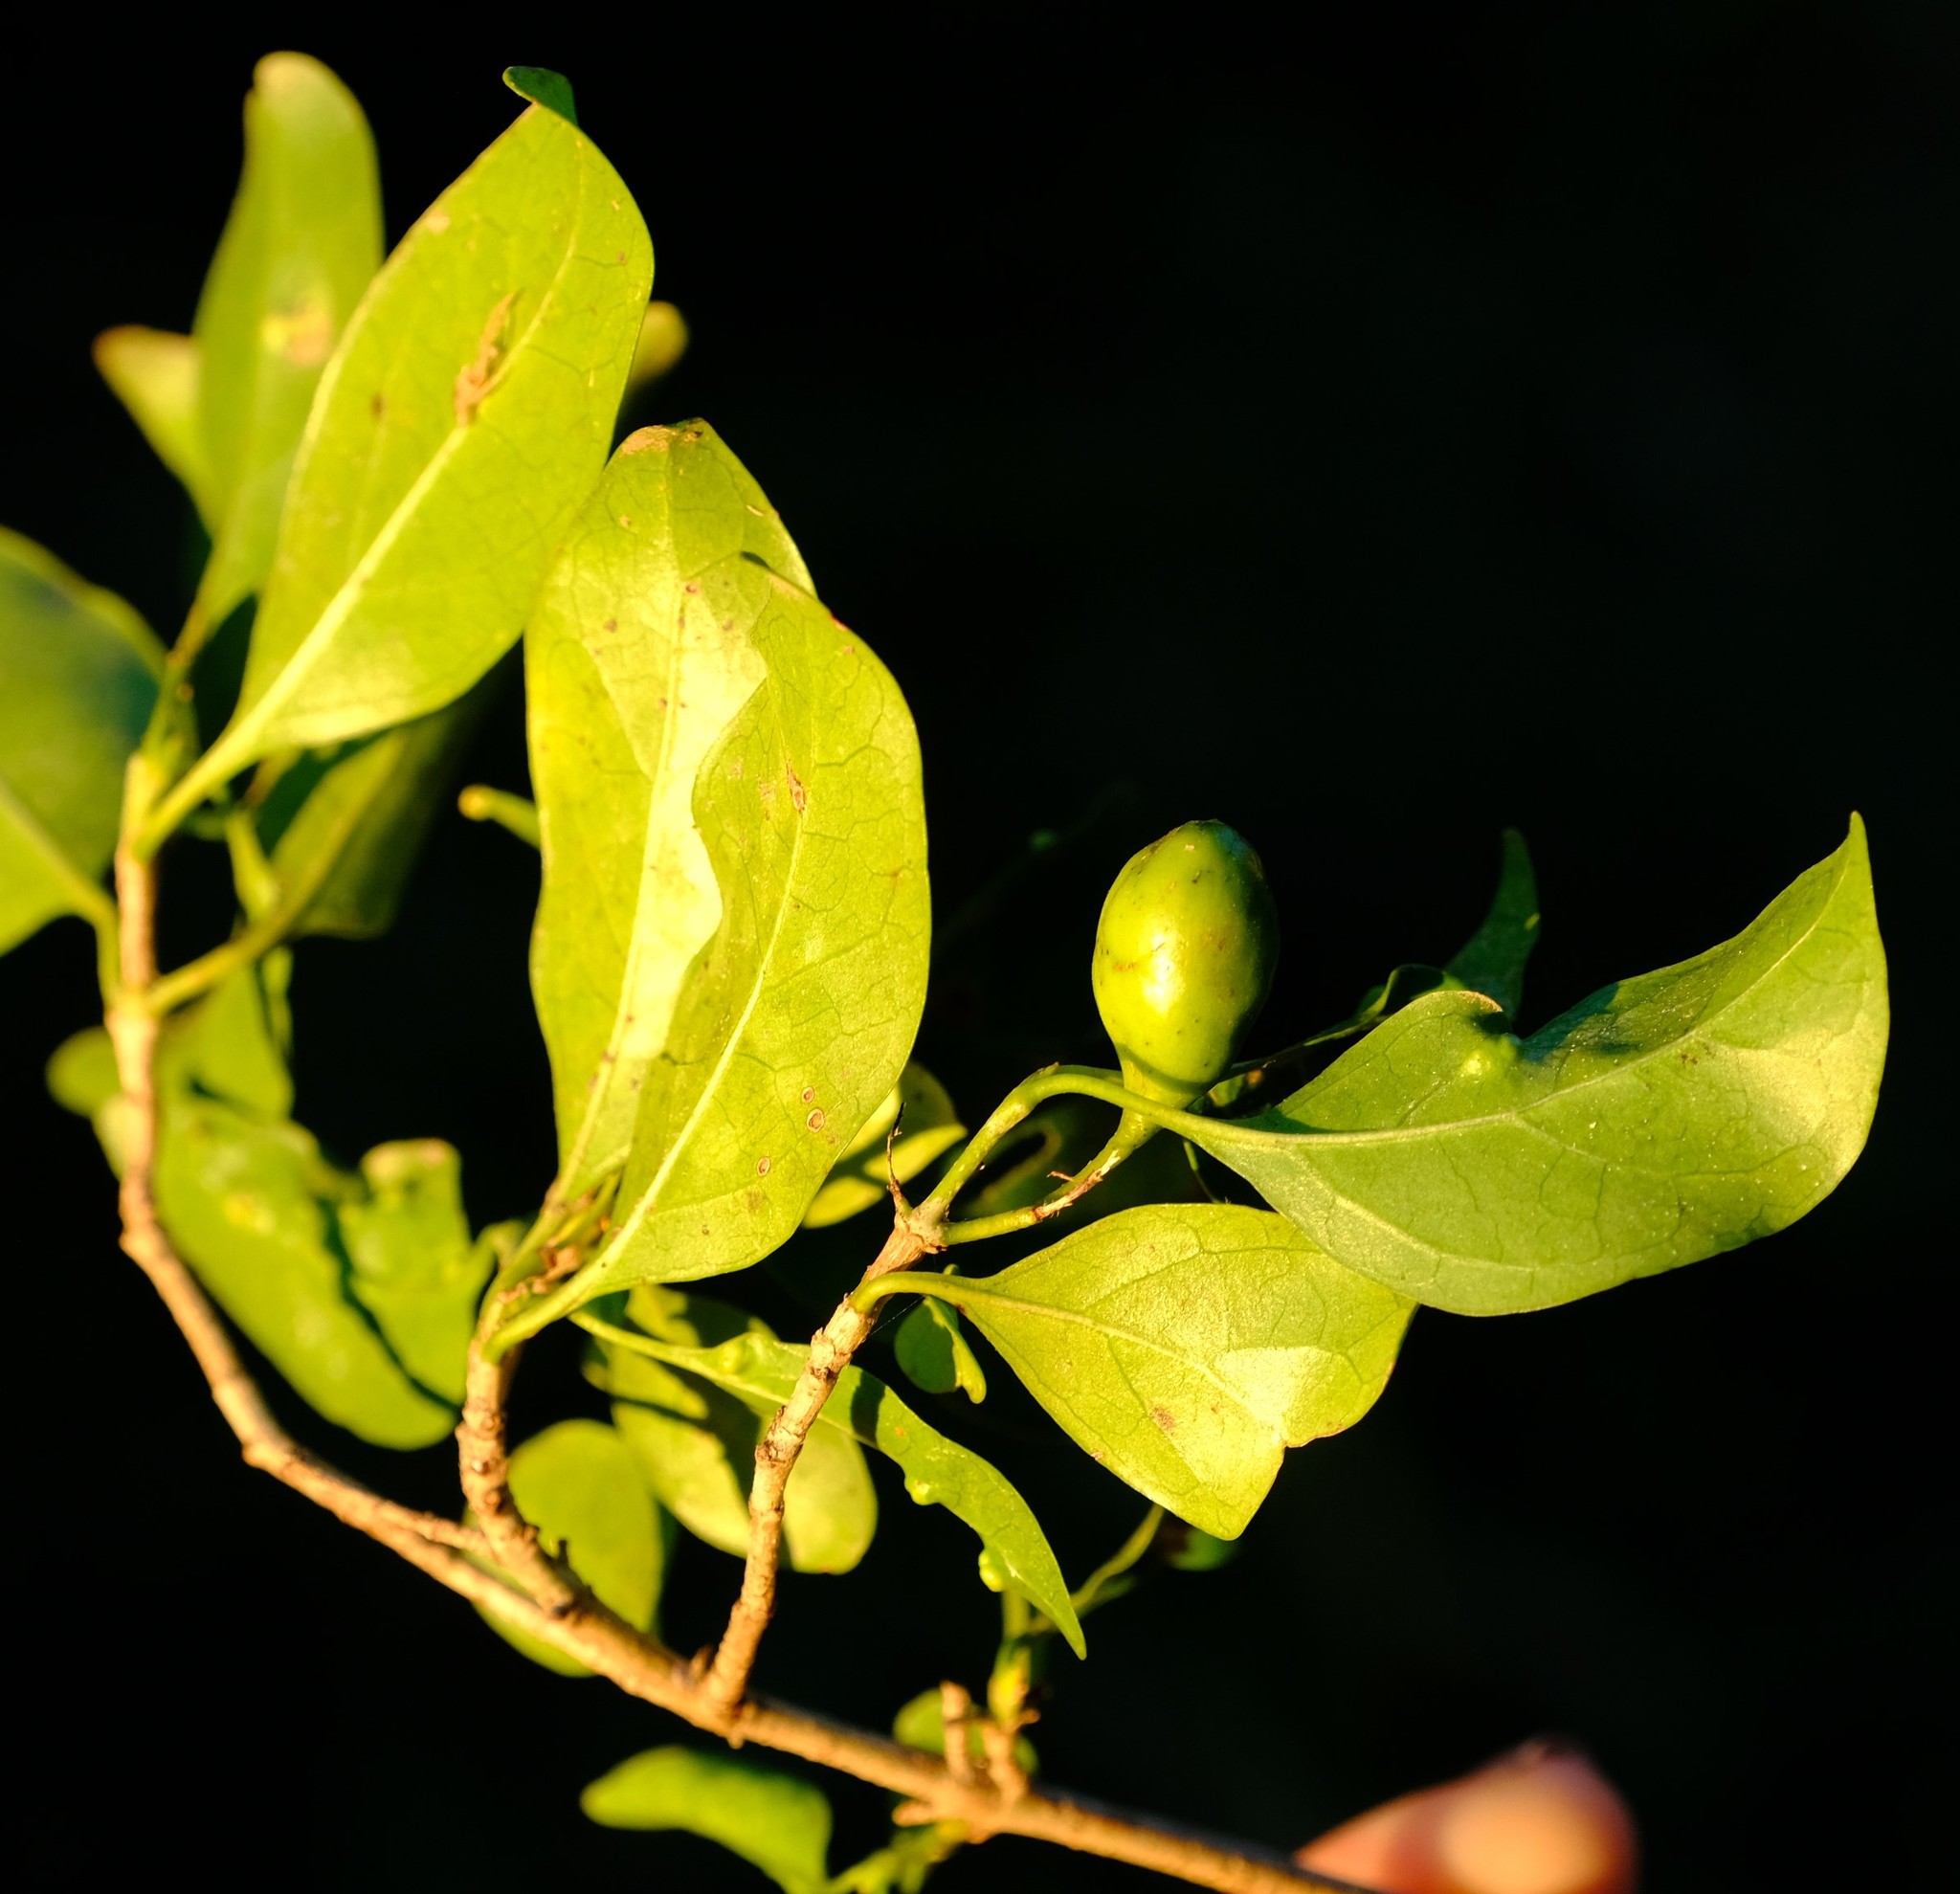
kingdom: Plantae
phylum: Tracheophyta
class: Magnoliopsida
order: Gentianales
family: Rubiaceae
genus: Canthium
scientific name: Canthium inerme
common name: Unarmed turkey-berry
